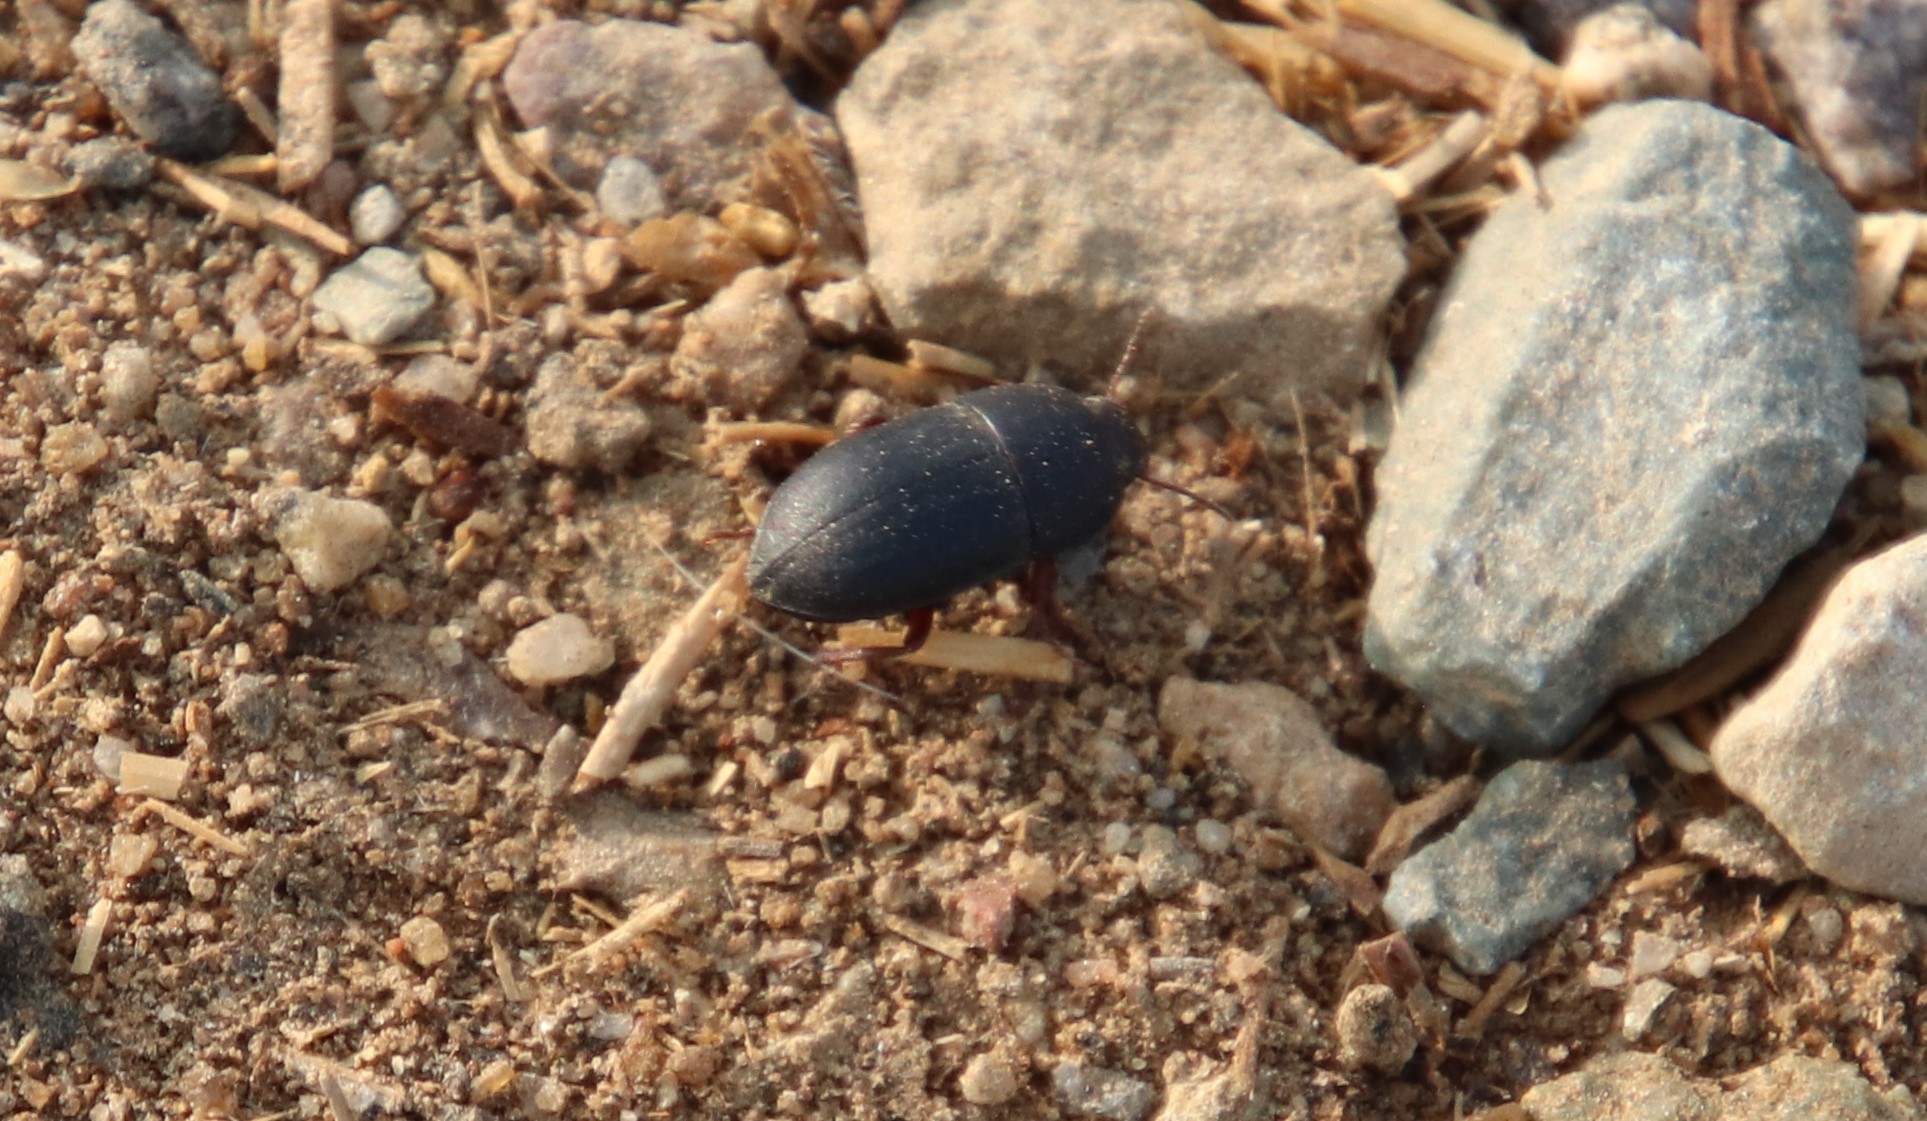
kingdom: Animalia
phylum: Arthropoda
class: Insecta
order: Coleoptera
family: Tenebrionidae
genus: Coniontis
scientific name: Coniontis
